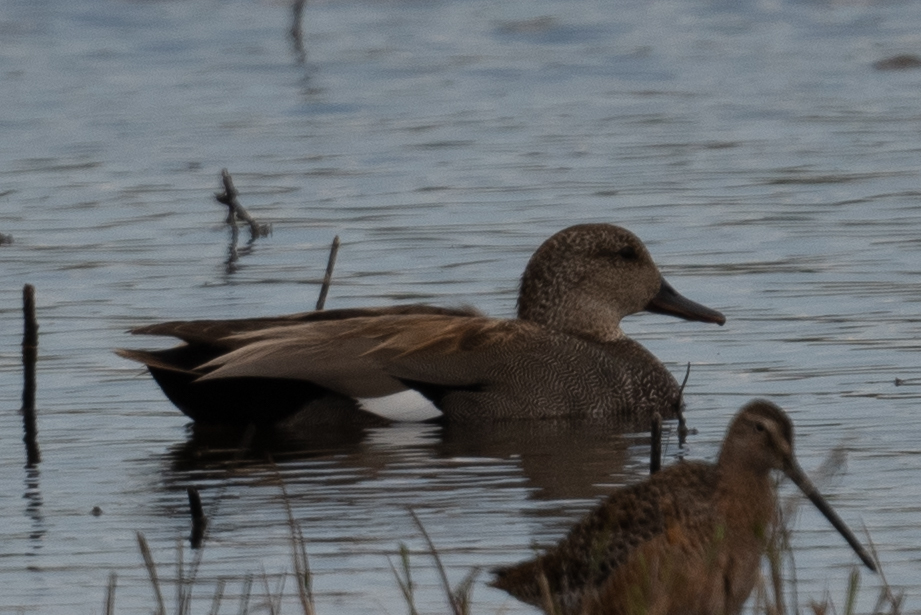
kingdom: Animalia
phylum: Chordata
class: Aves
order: Anseriformes
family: Anatidae
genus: Mareca
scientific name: Mareca strepera
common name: Gadwall
